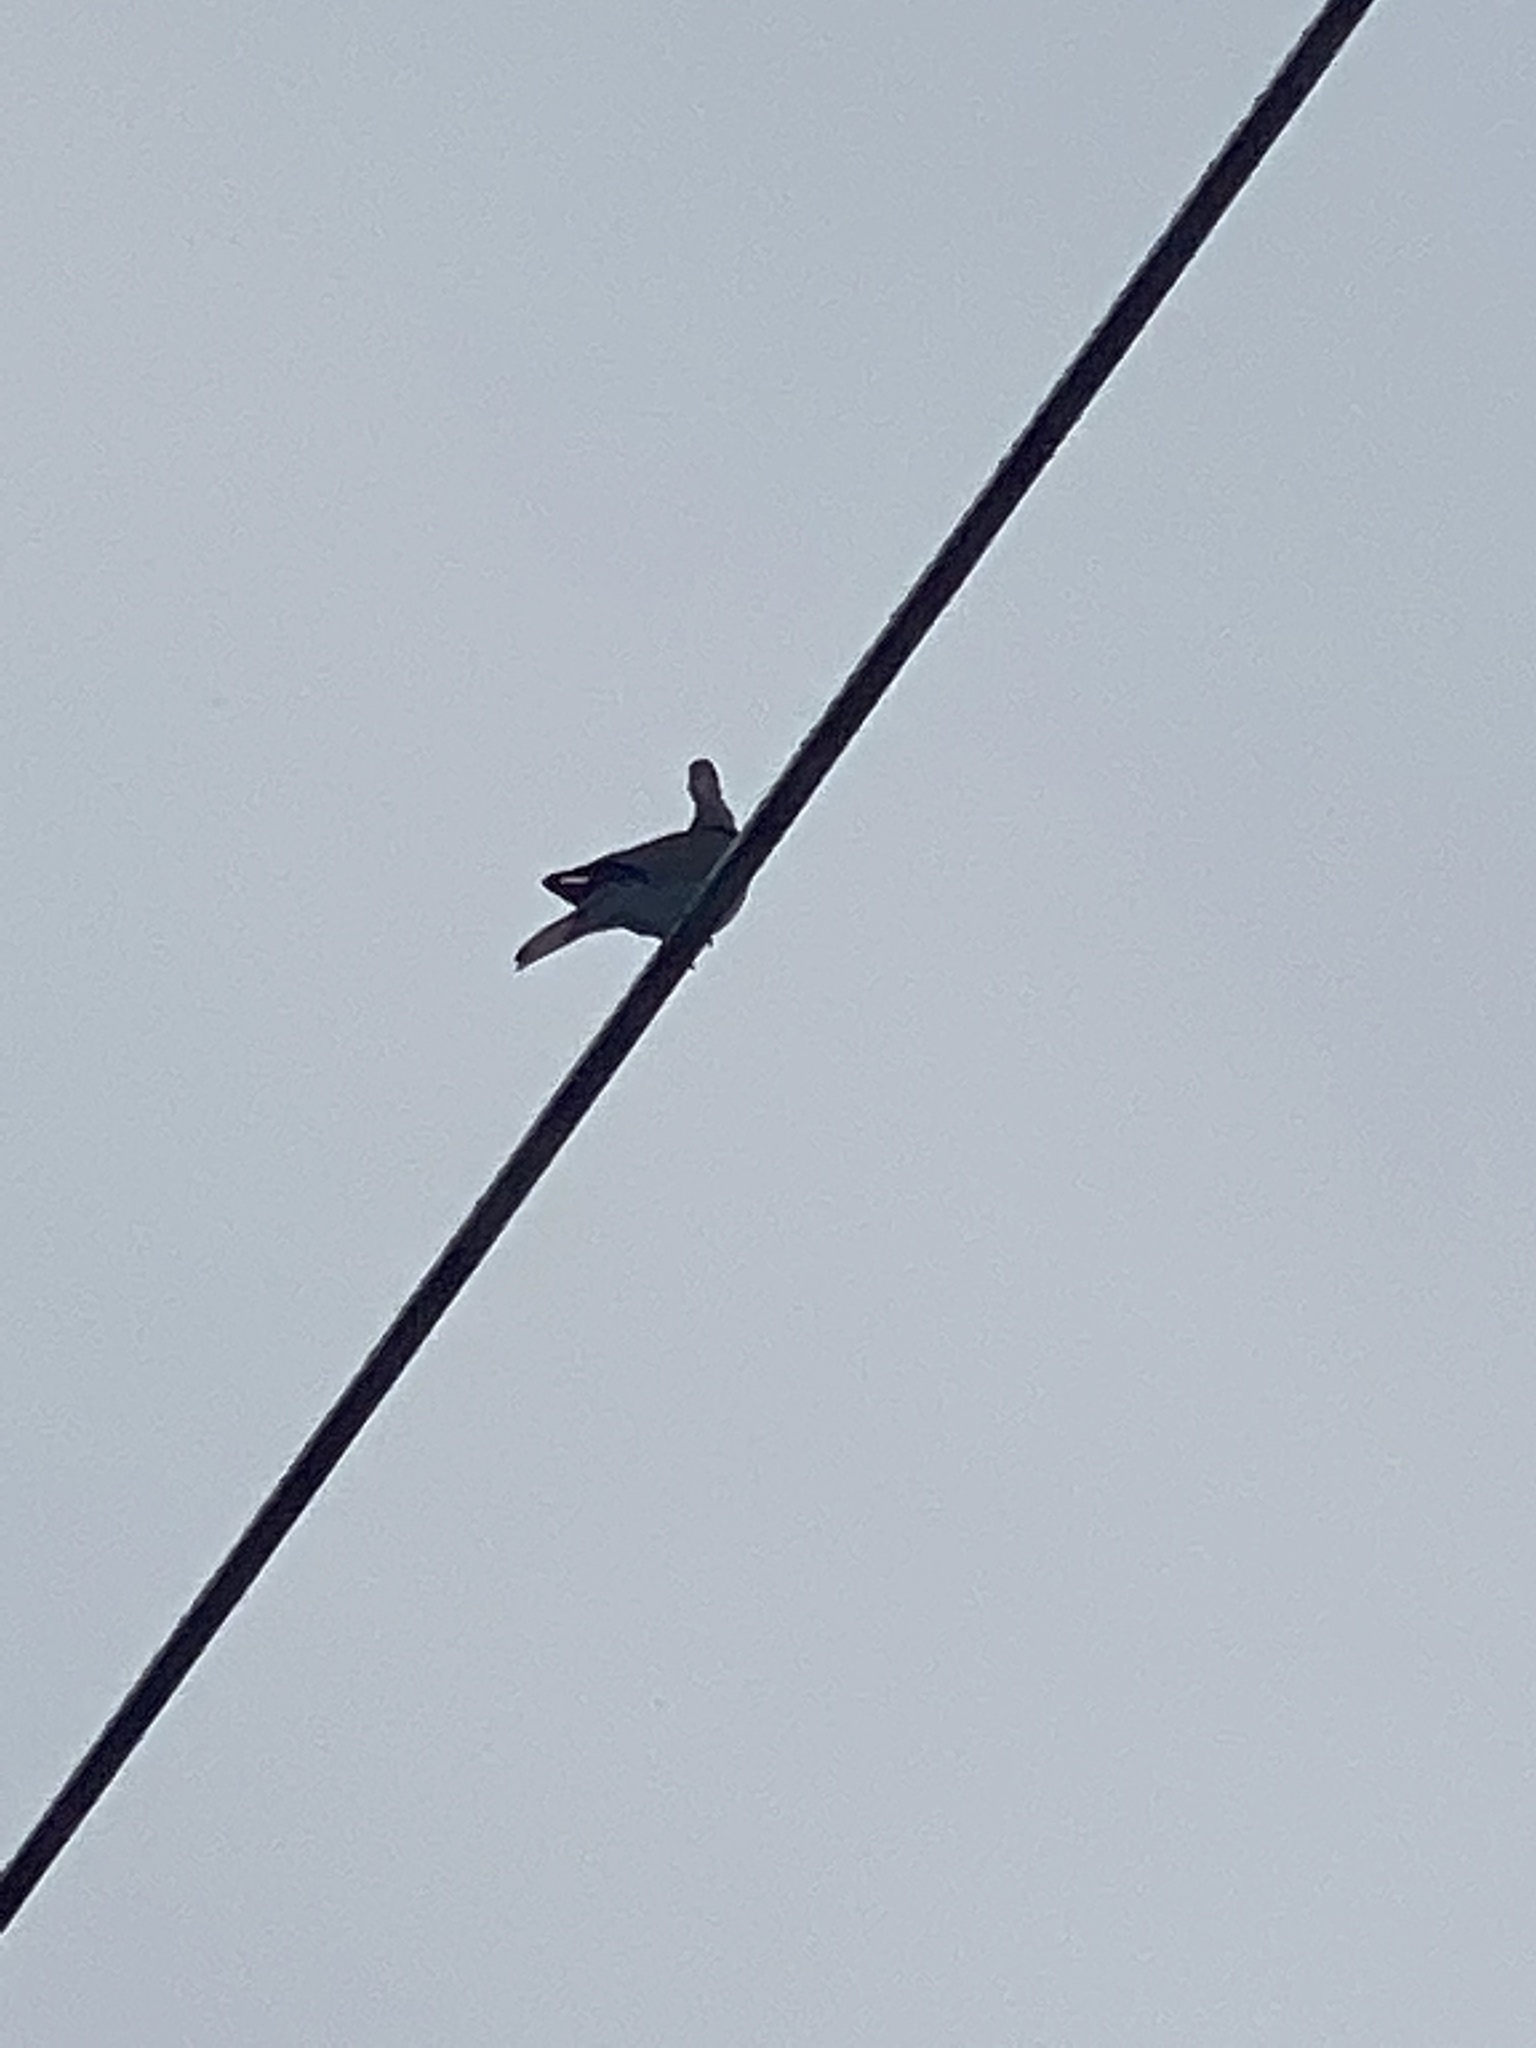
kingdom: Animalia
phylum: Chordata
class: Aves
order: Columbiformes
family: Columbidae
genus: Zenaida
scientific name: Zenaida macroura
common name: Mourning dove
